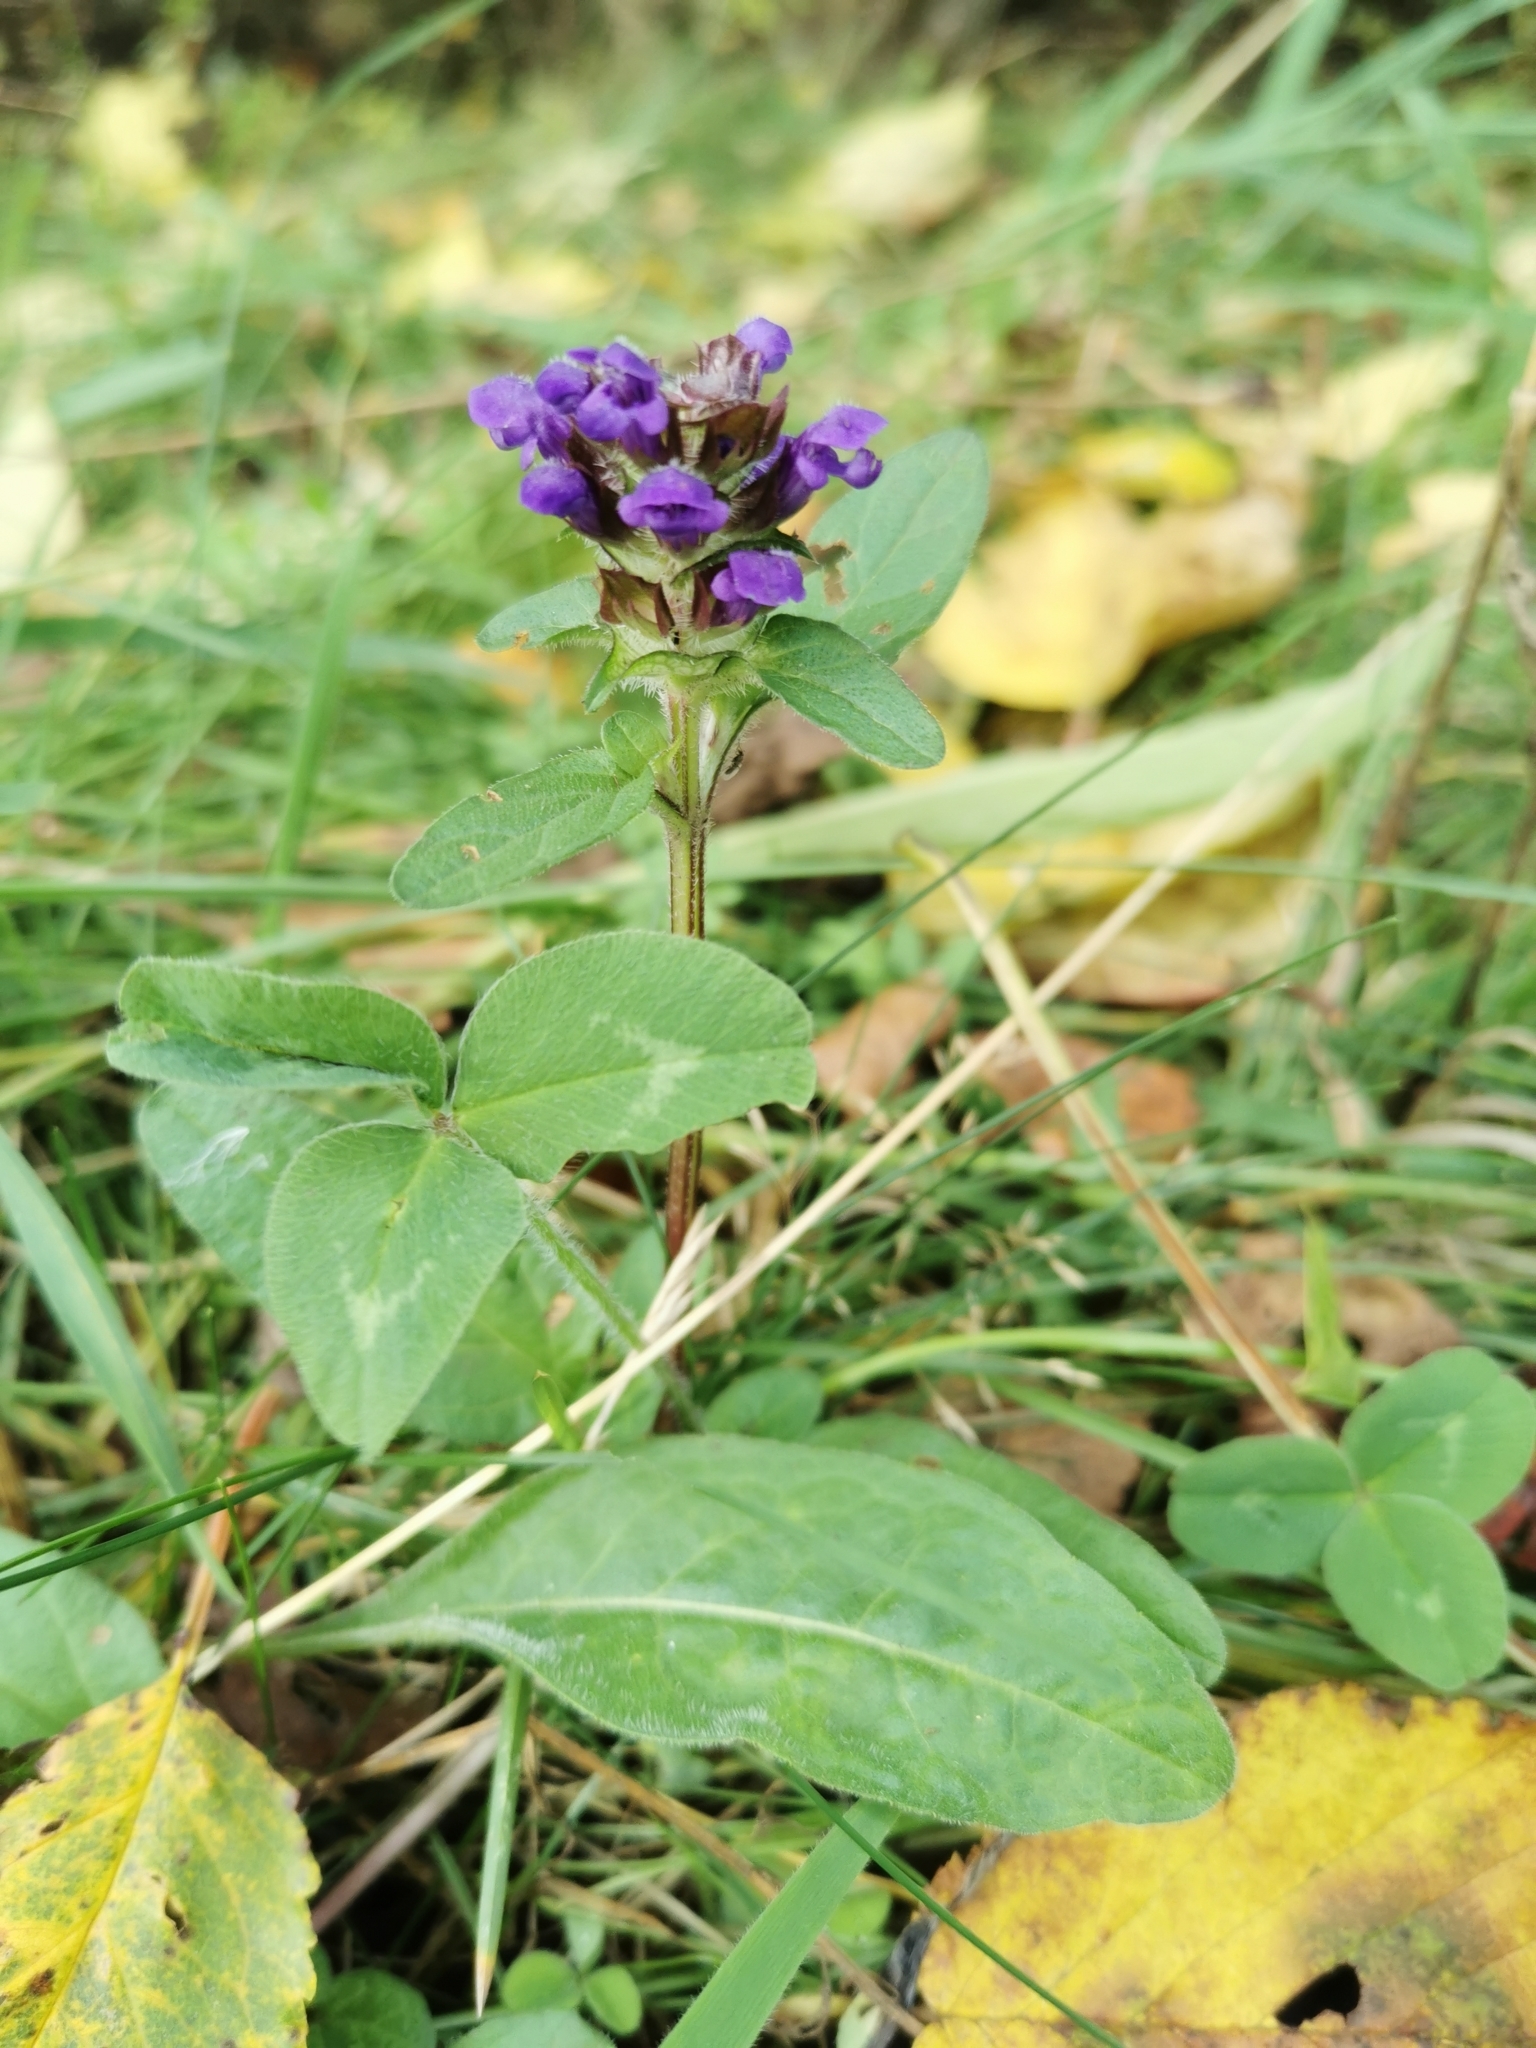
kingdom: Plantae
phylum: Tracheophyta
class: Magnoliopsida
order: Lamiales
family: Lamiaceae
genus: Prunella
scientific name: Prunella vulgaris
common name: Heal-all
